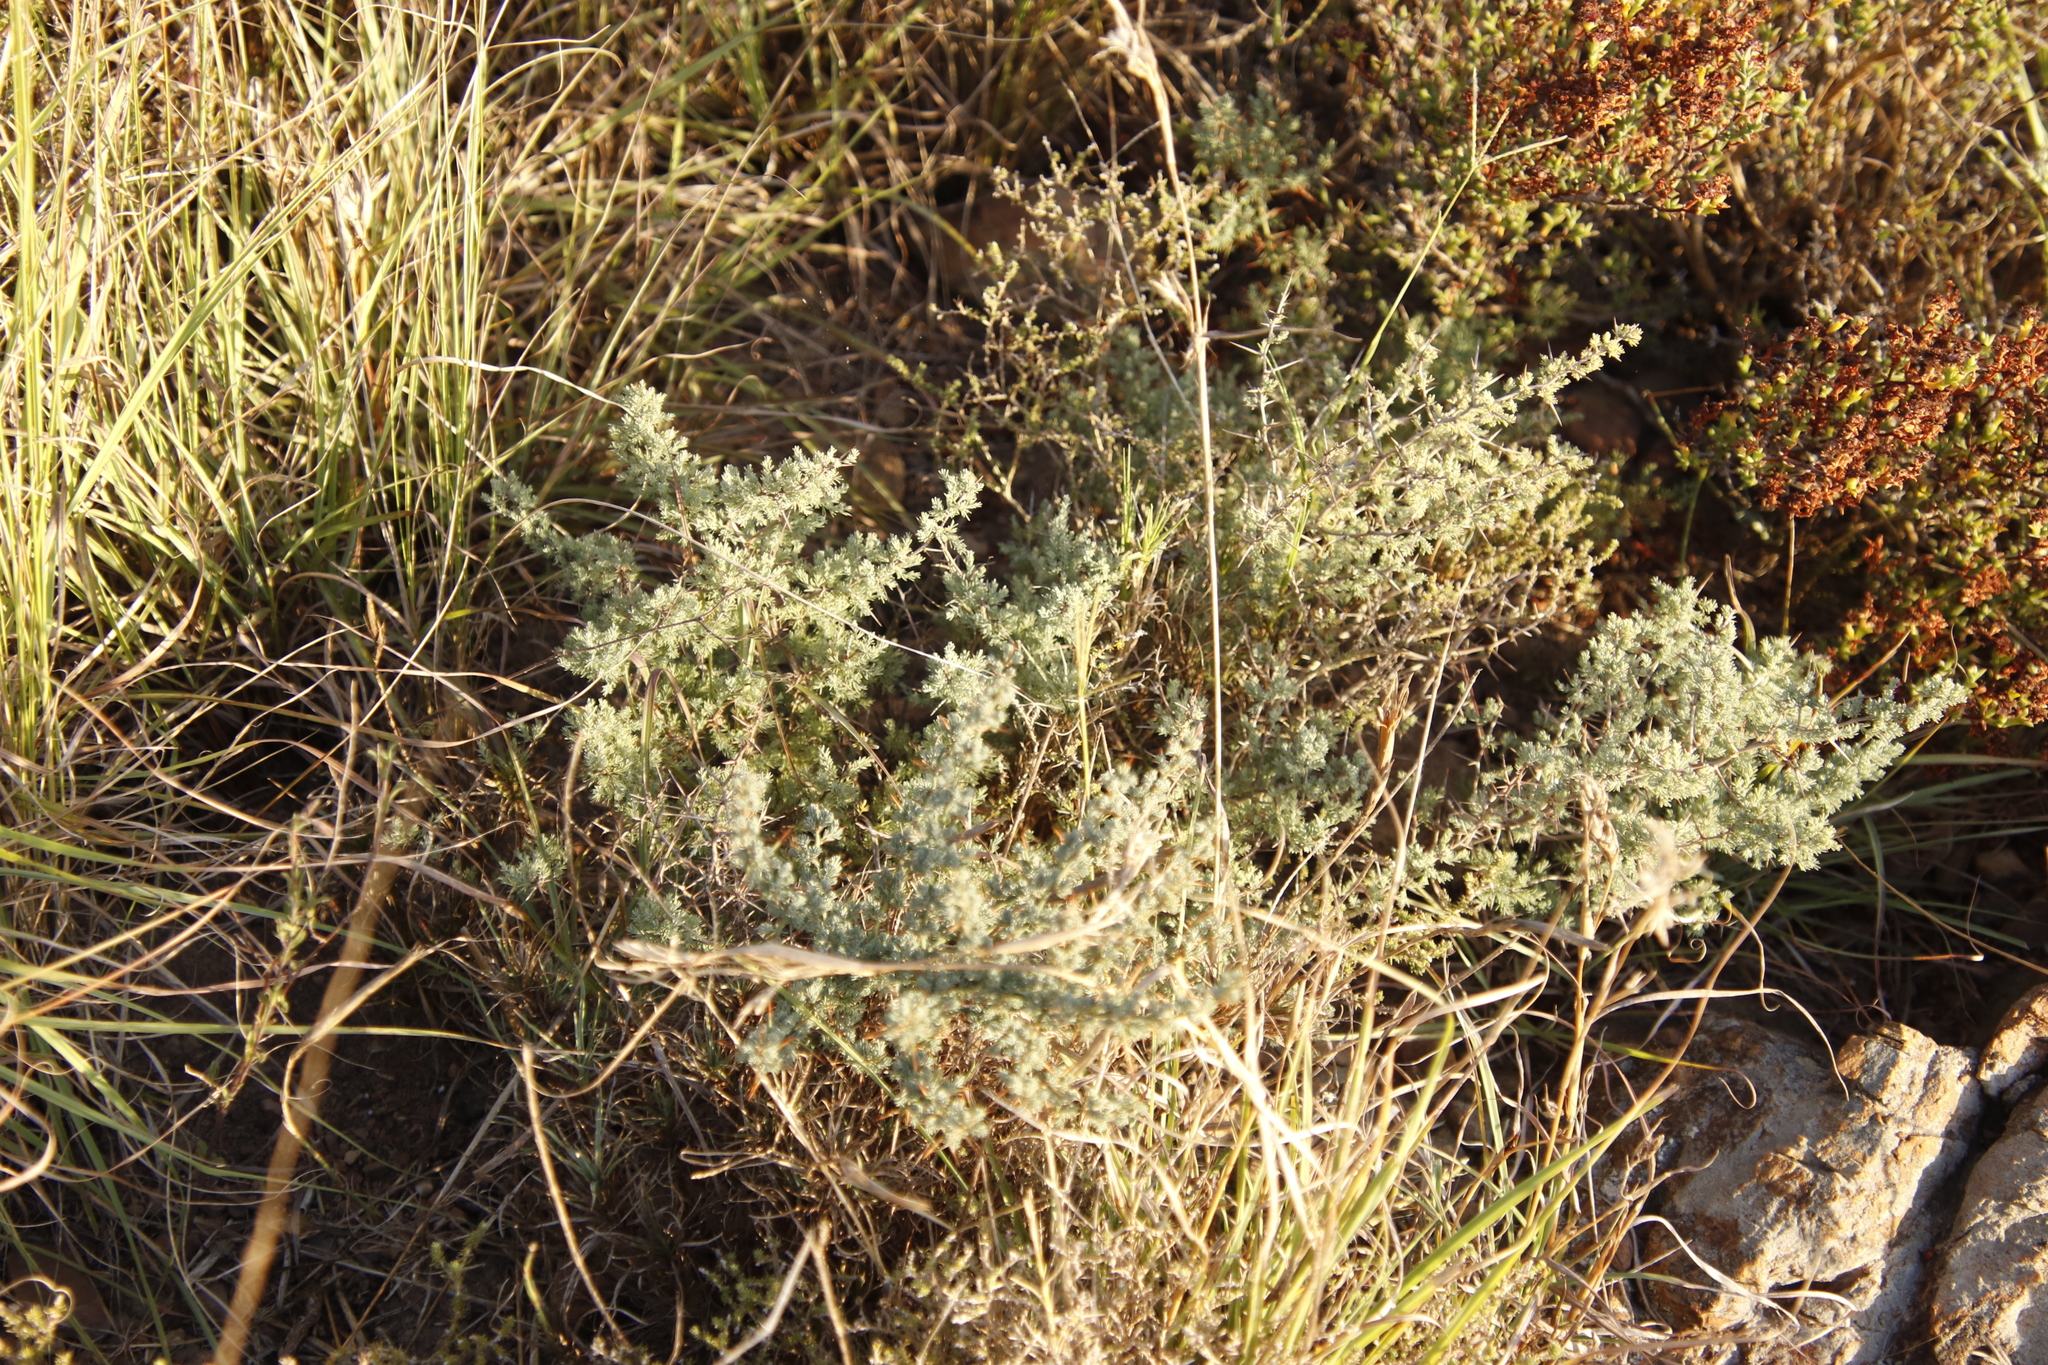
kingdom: Plantae
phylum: Tracheophyta
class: Liliopsida
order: Asparagales
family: Asparagaceae
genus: Asparagus
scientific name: Asparagus capensis
